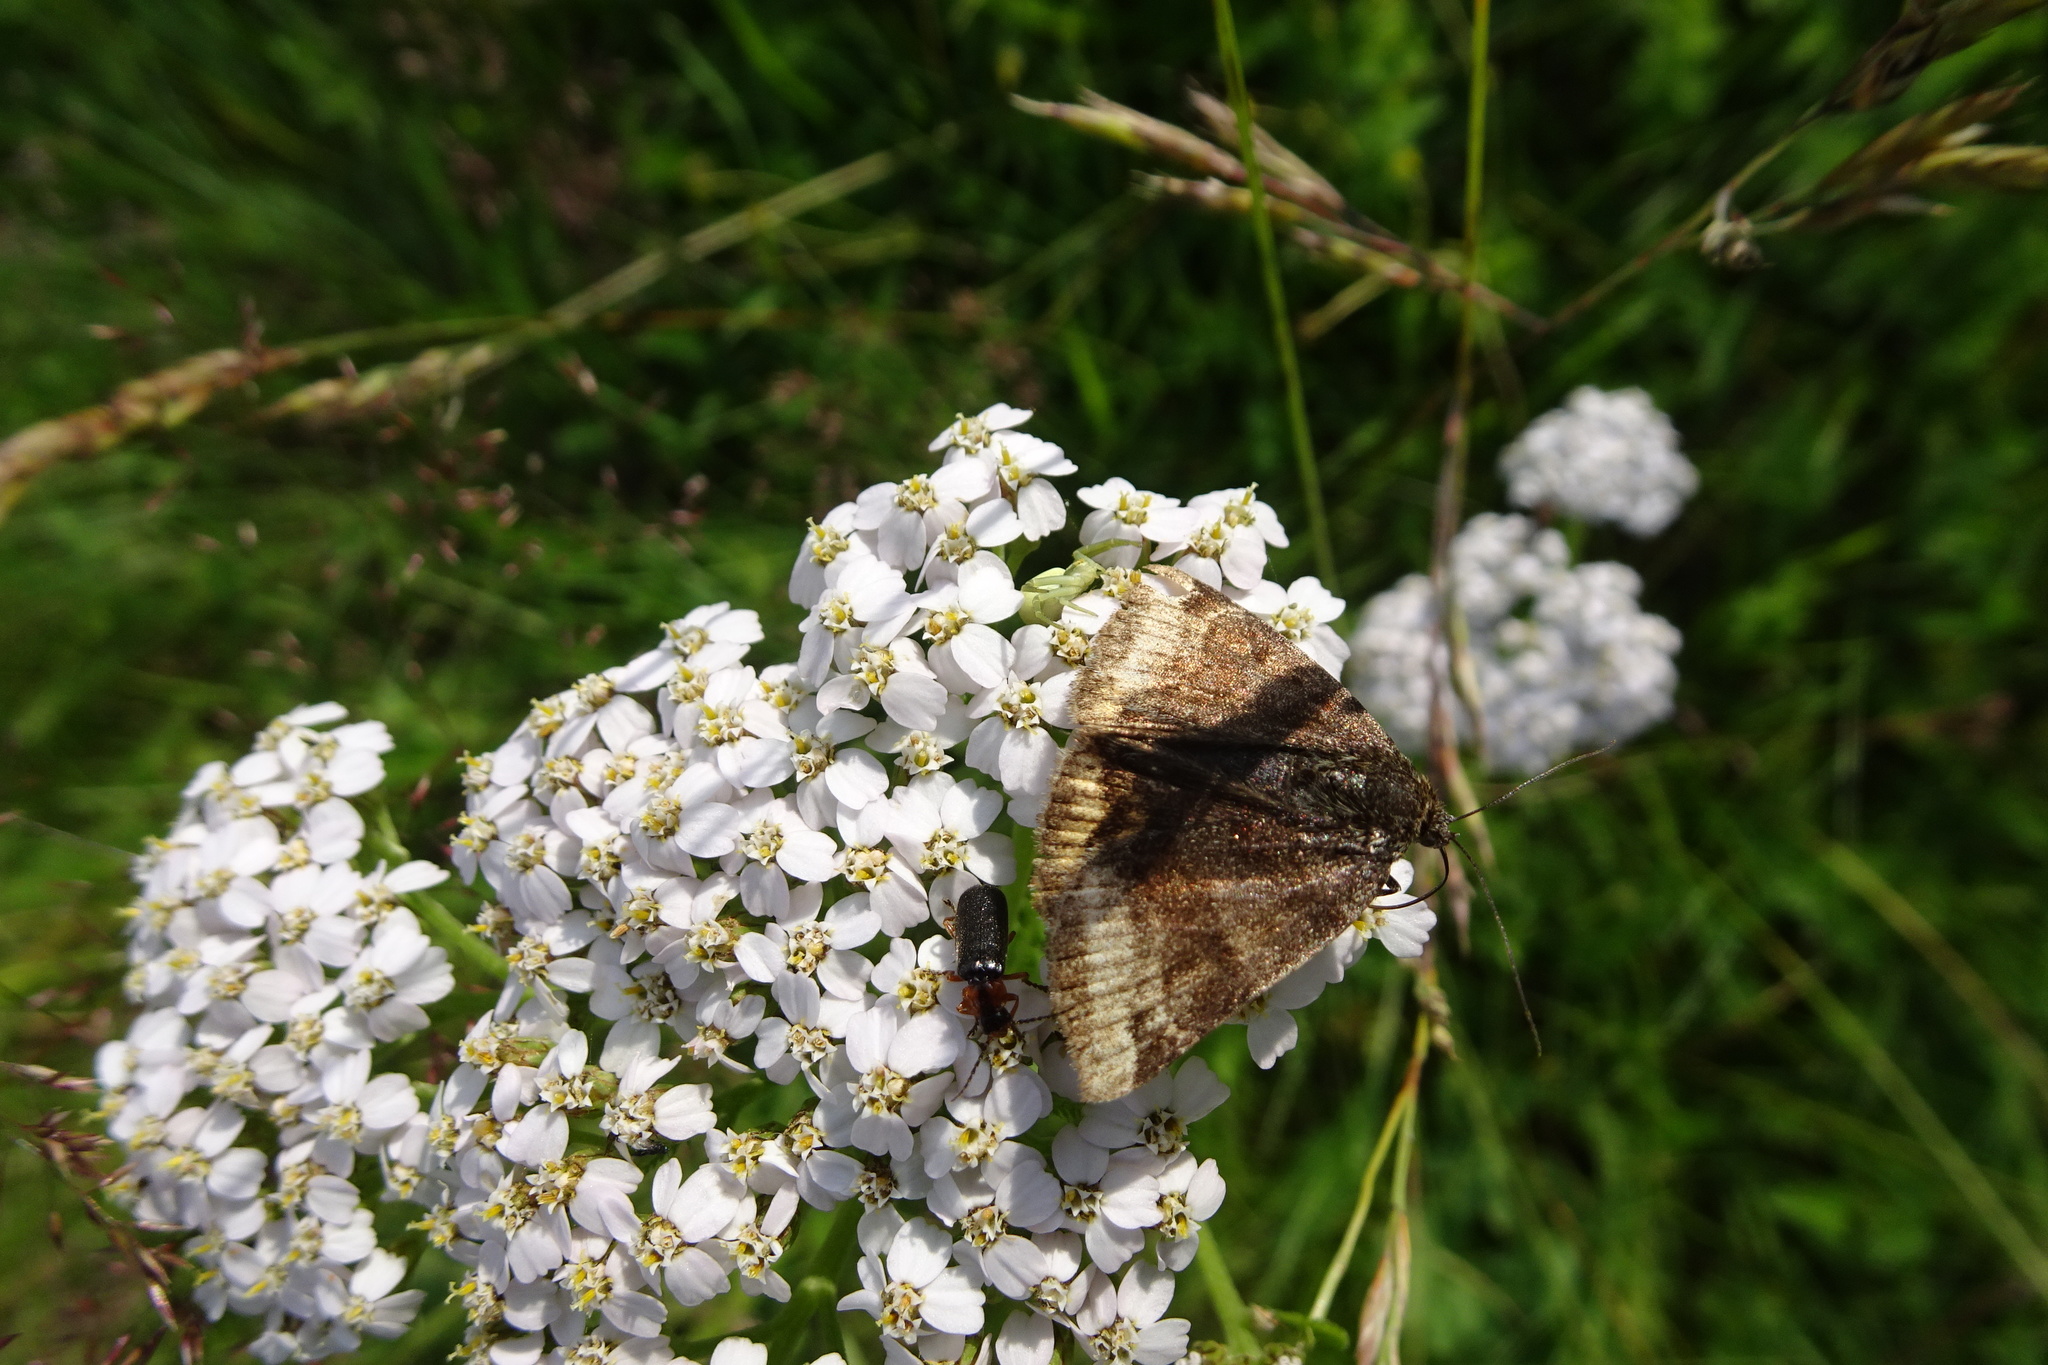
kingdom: Animalia
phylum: Arthropoda
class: Insecta
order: Lepidoptera
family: Erebidae
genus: Euclidia
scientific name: Euclidia glyphica
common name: Burnet companion
